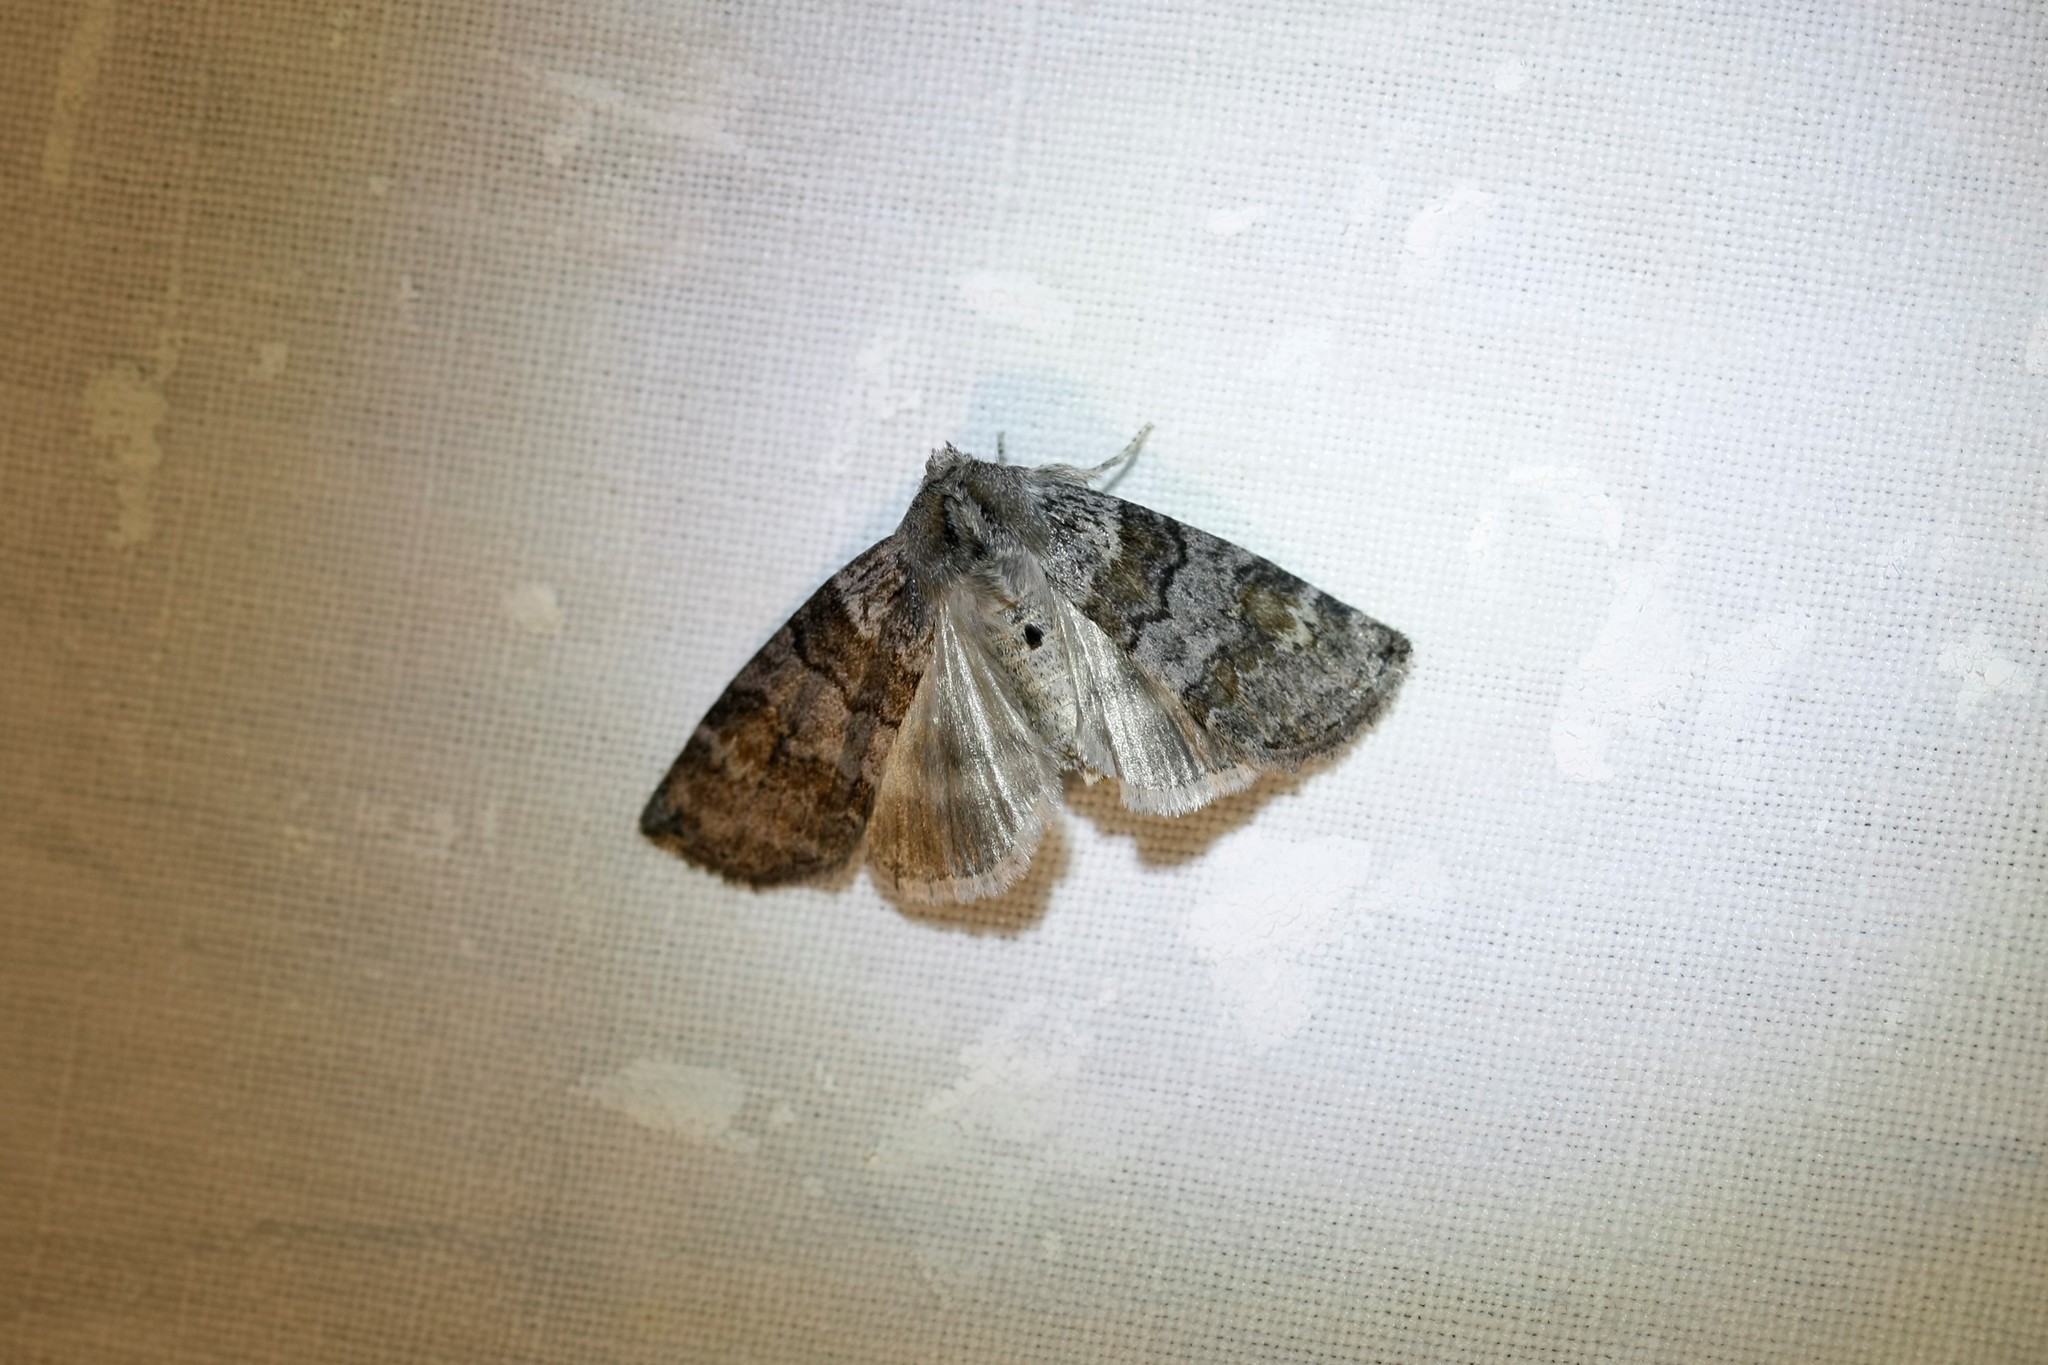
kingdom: Animalia
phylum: Arthropoda
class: Insecta
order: Lepidoptera
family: Drepanidae
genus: Cymatophorina
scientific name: Cymatophorina diluta
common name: Oak lutestring
